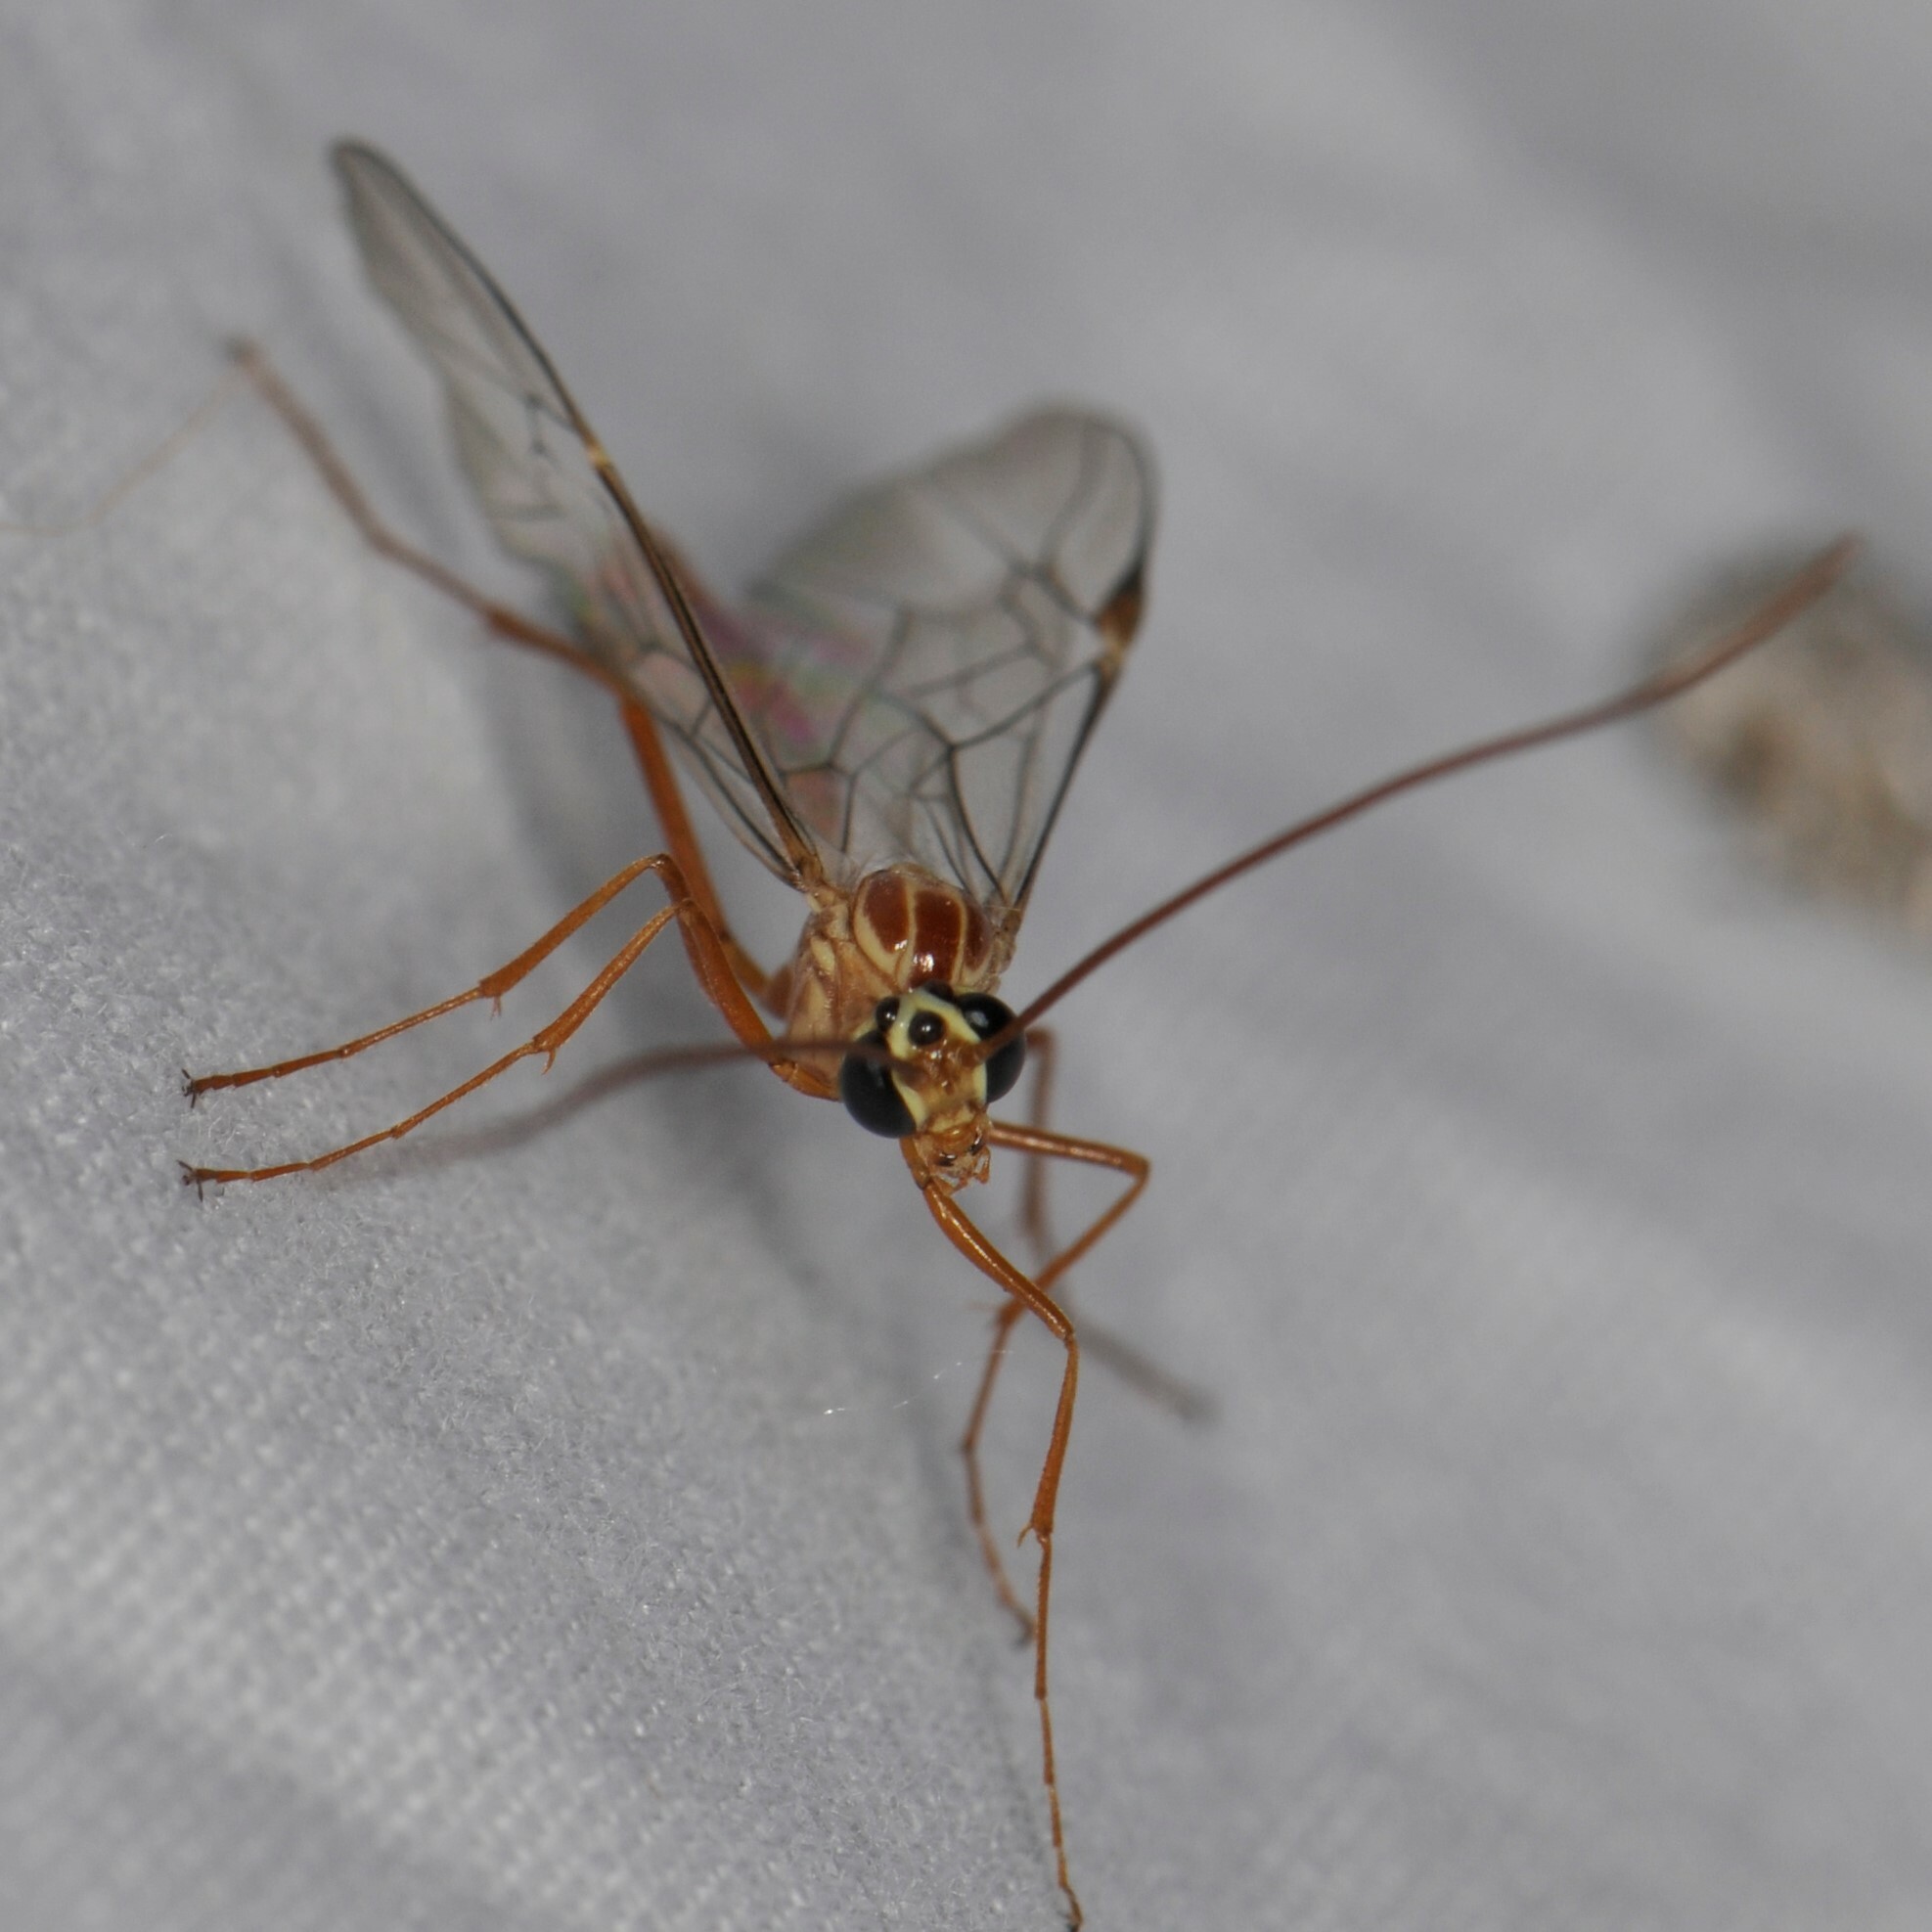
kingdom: Animalia
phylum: Arthropoda
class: Insecta
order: Hymenoptera
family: Ichneumonidae
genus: Ophion
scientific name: Ophion
